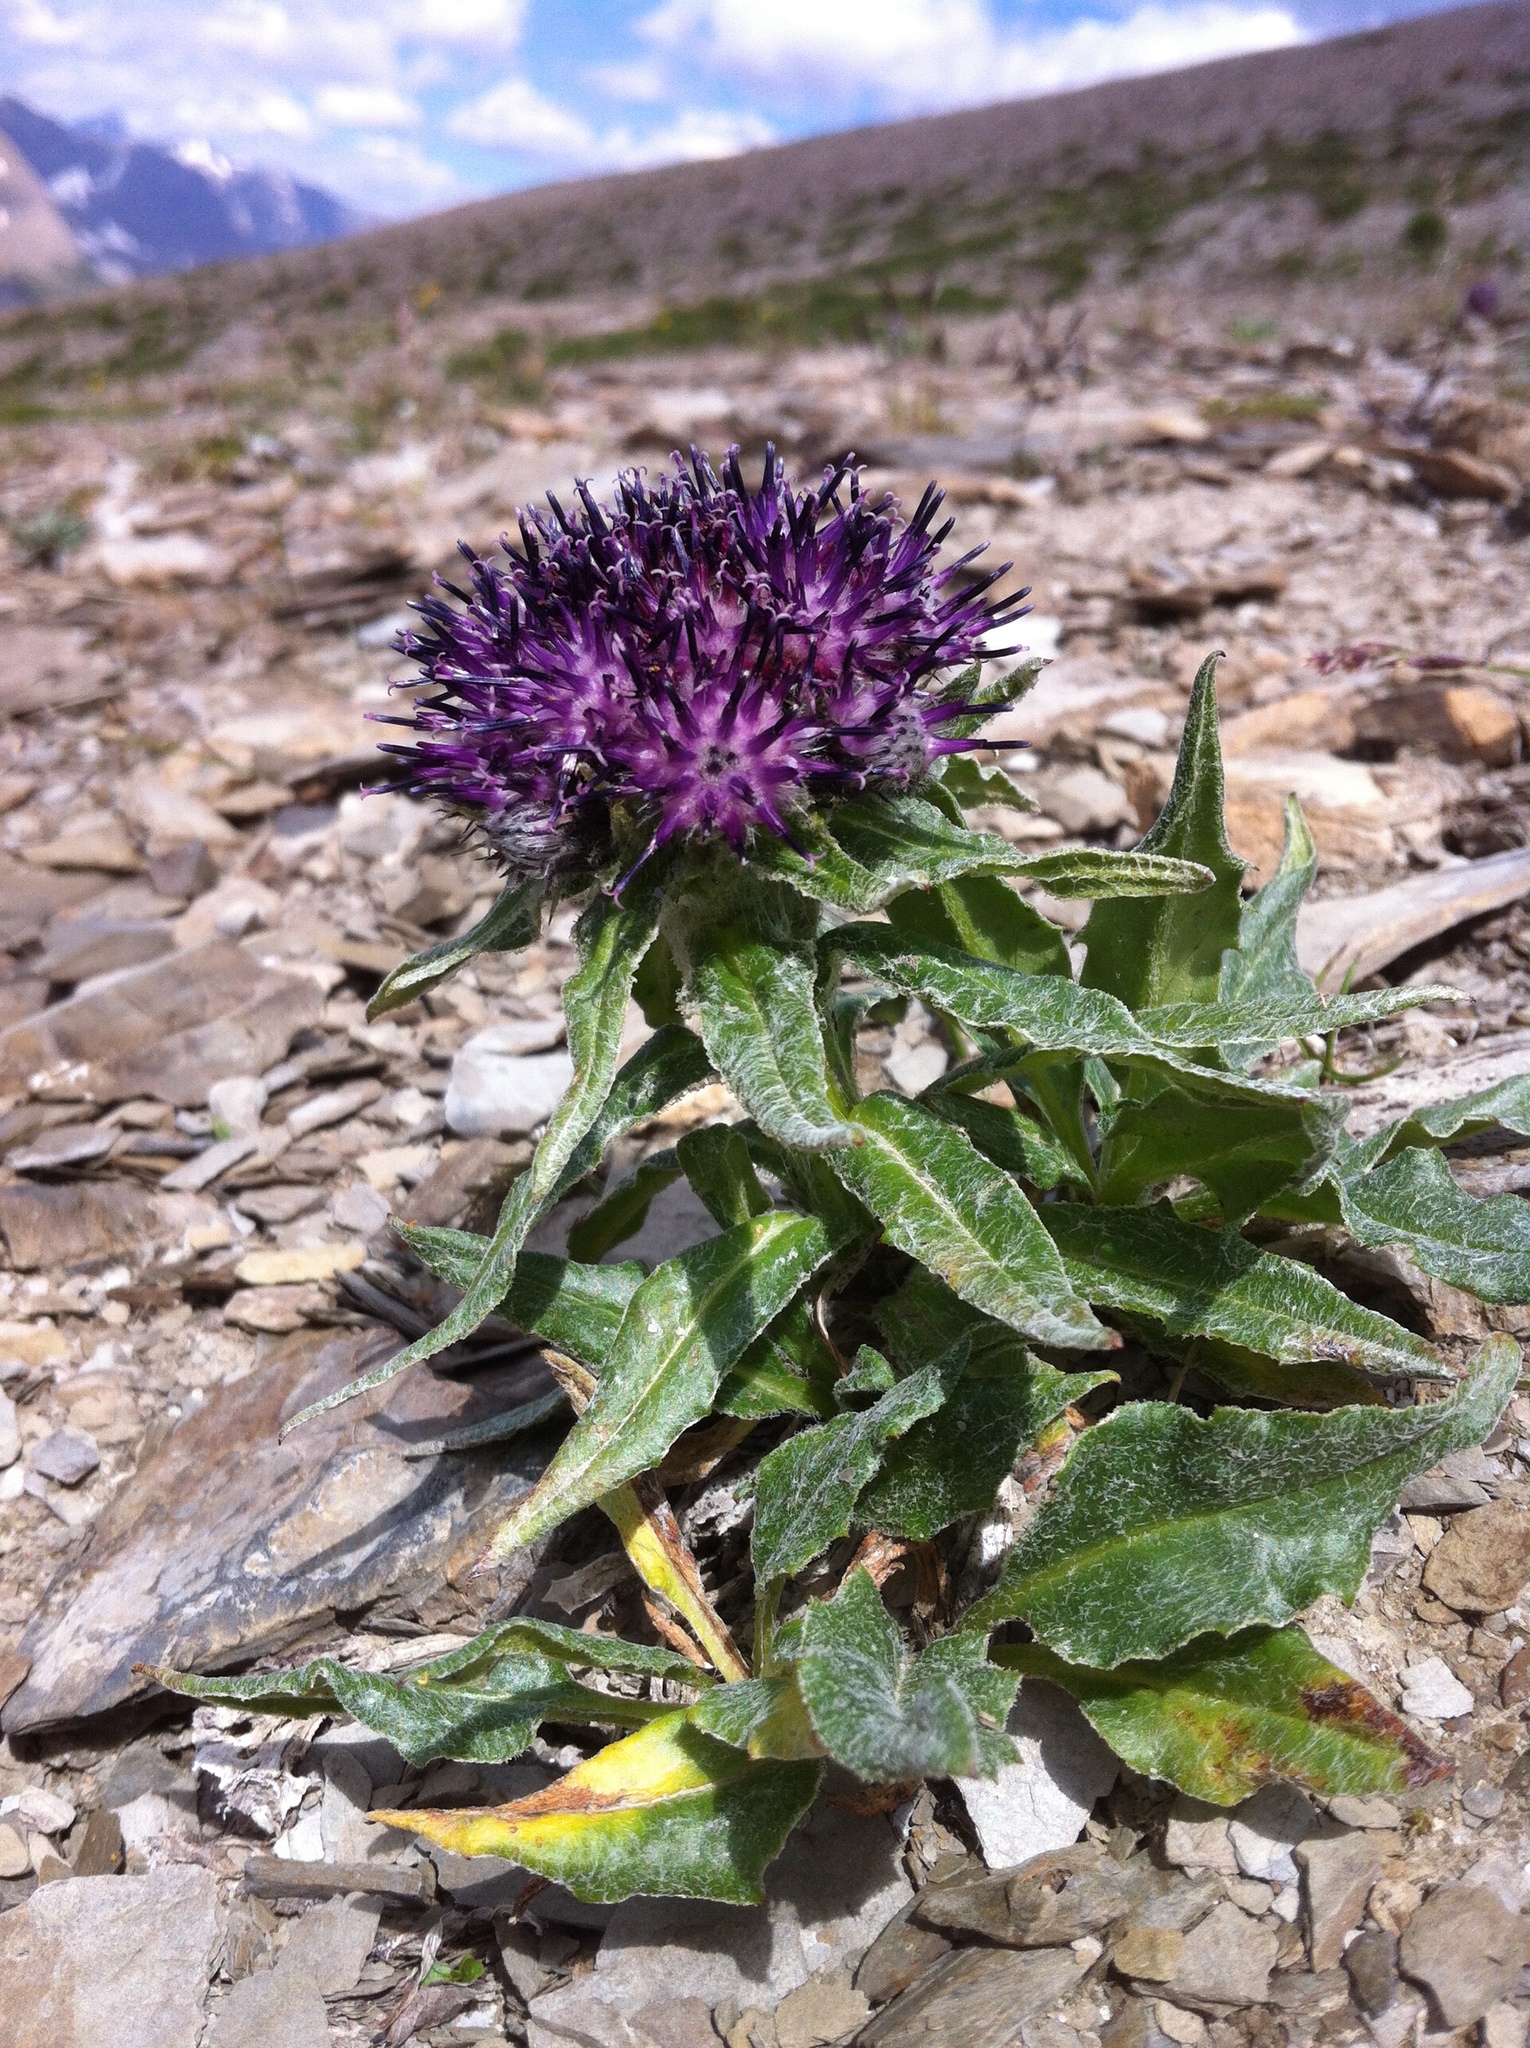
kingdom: Plantae
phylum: Tracheophyta
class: Magnoliopsida
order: Asterales
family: Asteraceae
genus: Saussurea
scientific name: Saussurea nuda
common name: Chaffless saw-wort
